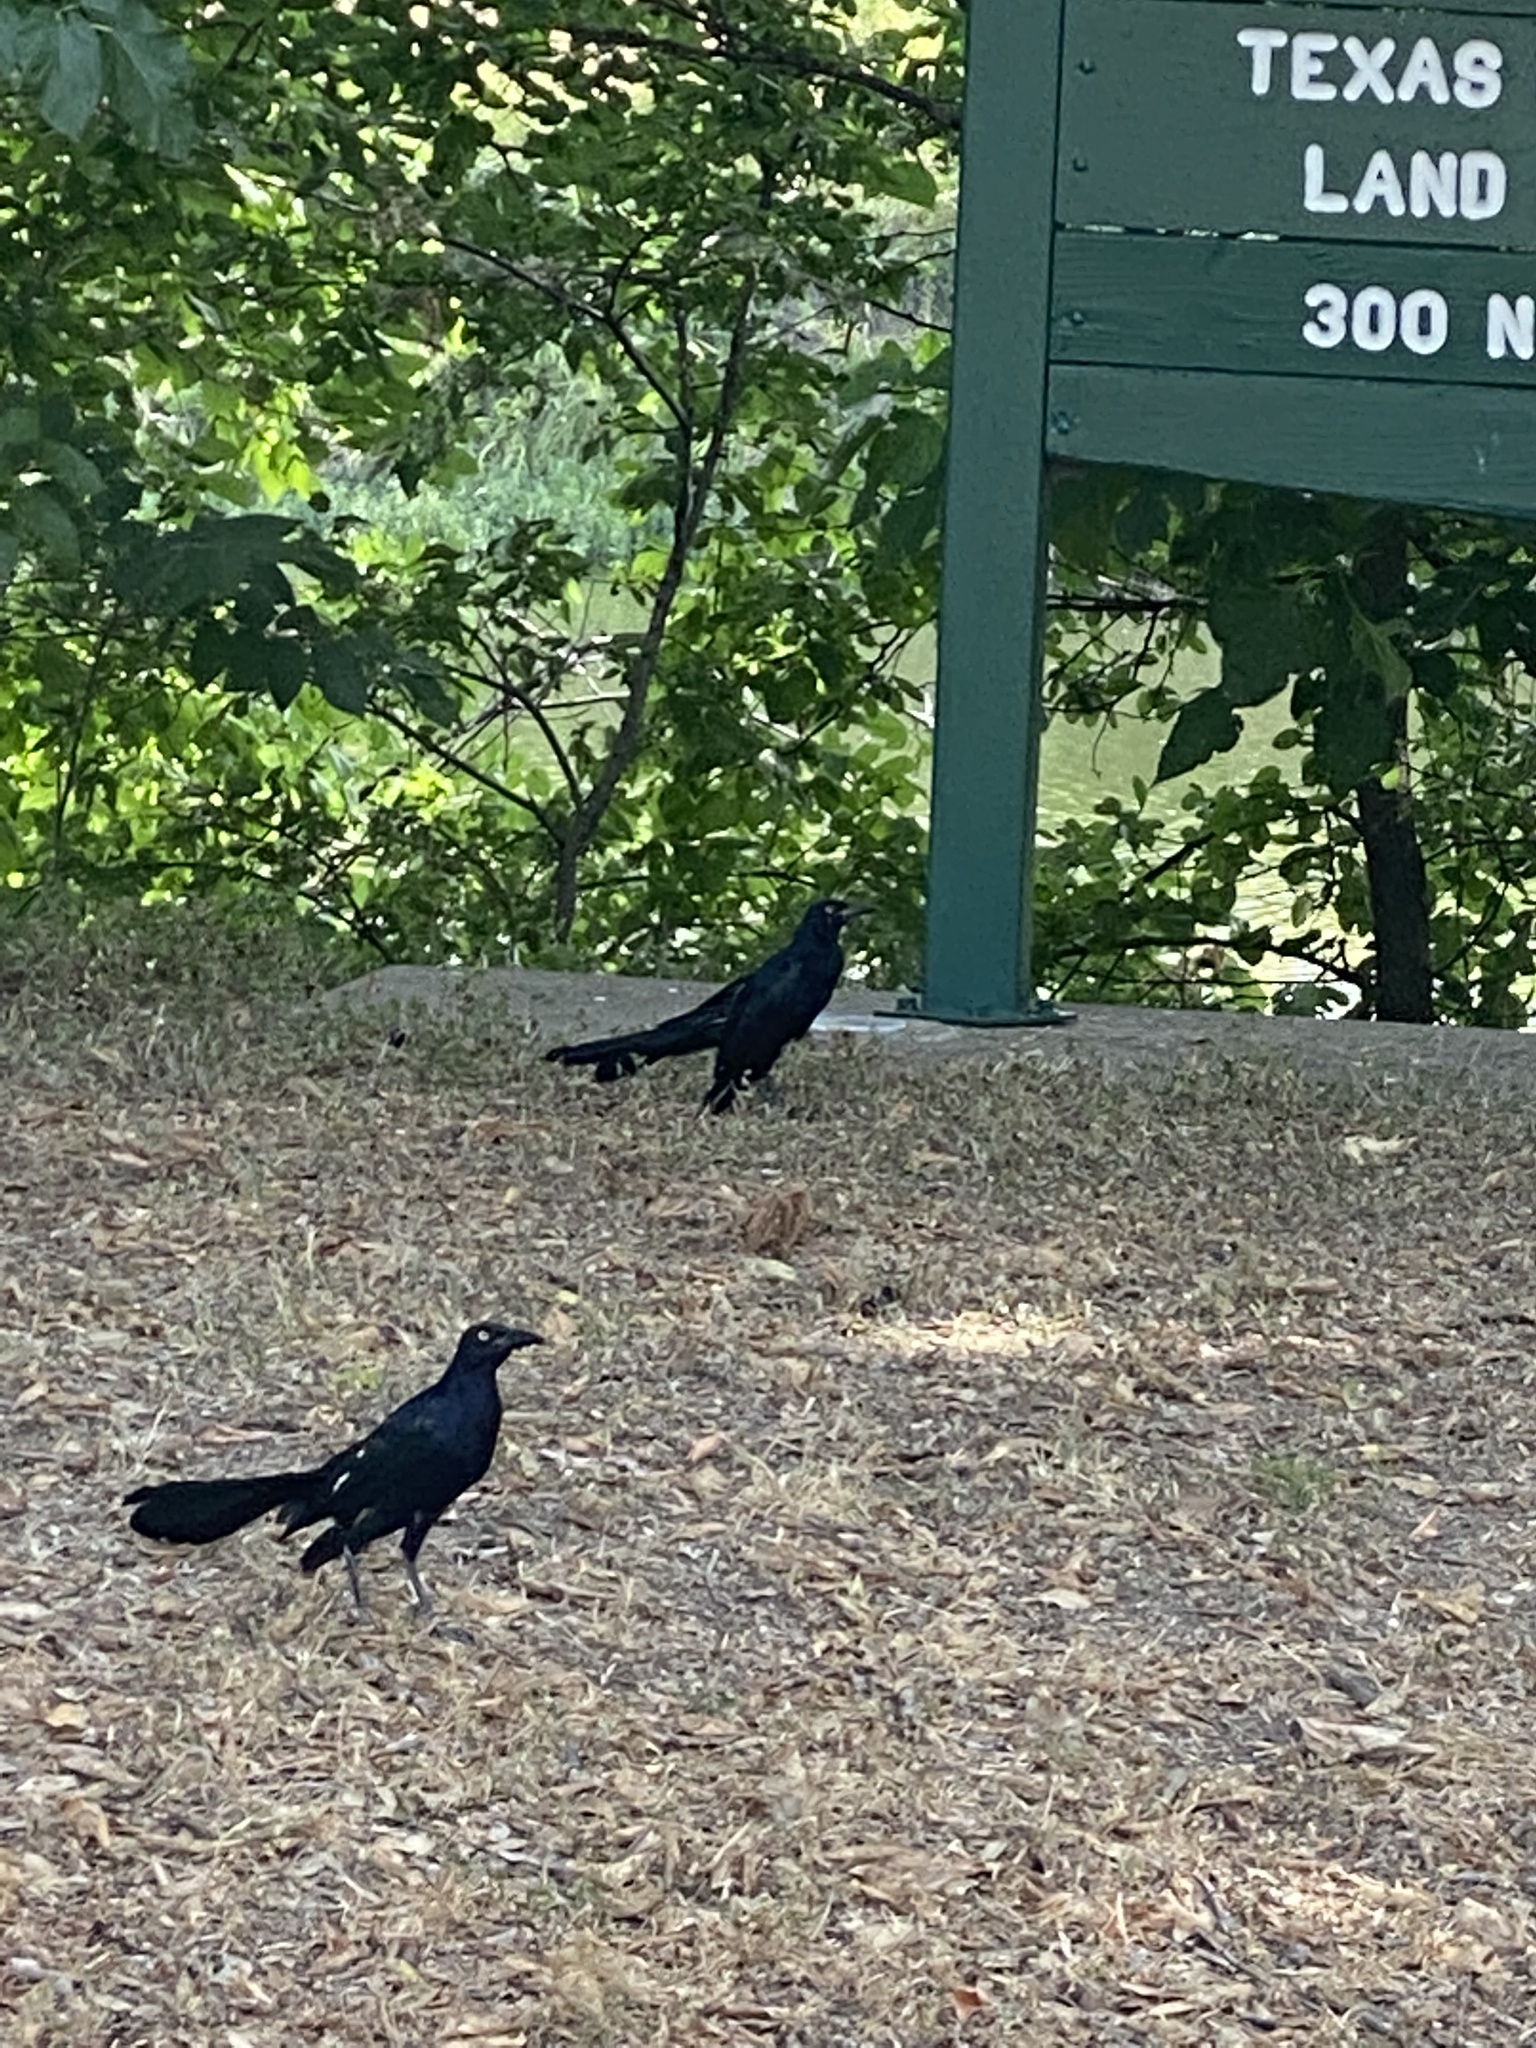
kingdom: Animalia
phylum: Chordata
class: Aves
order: Passeriformes
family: Icteridae
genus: Quiscalus
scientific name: Quiscalus mexicanus
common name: Great-tailed grackle
